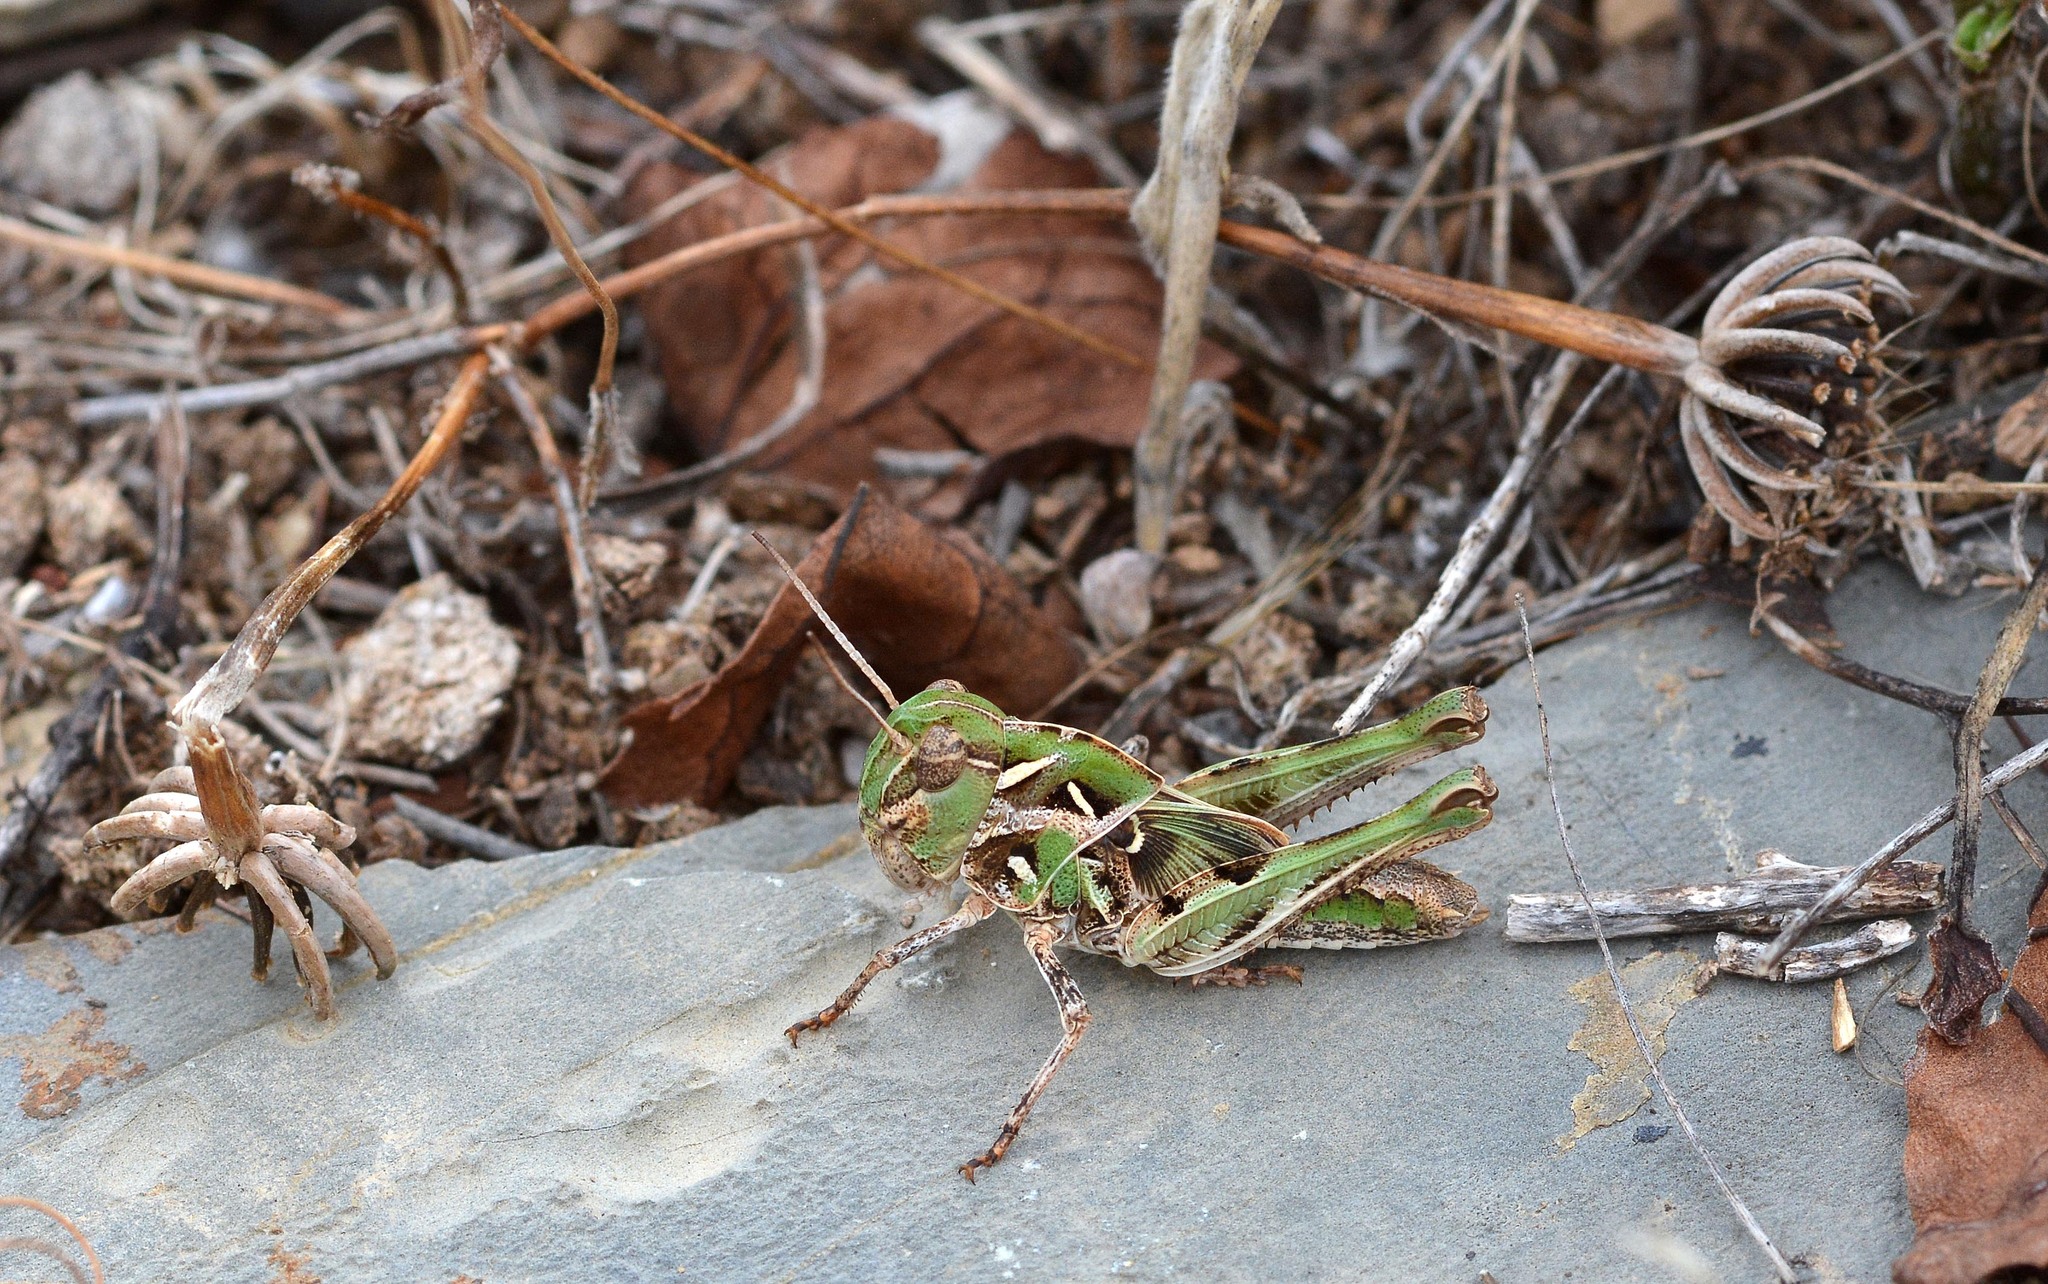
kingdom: Animalia
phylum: Arthropoda
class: Insecta
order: Orthoptera
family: Acrididae
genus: Oedaleus
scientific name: Oedaleus decorus
